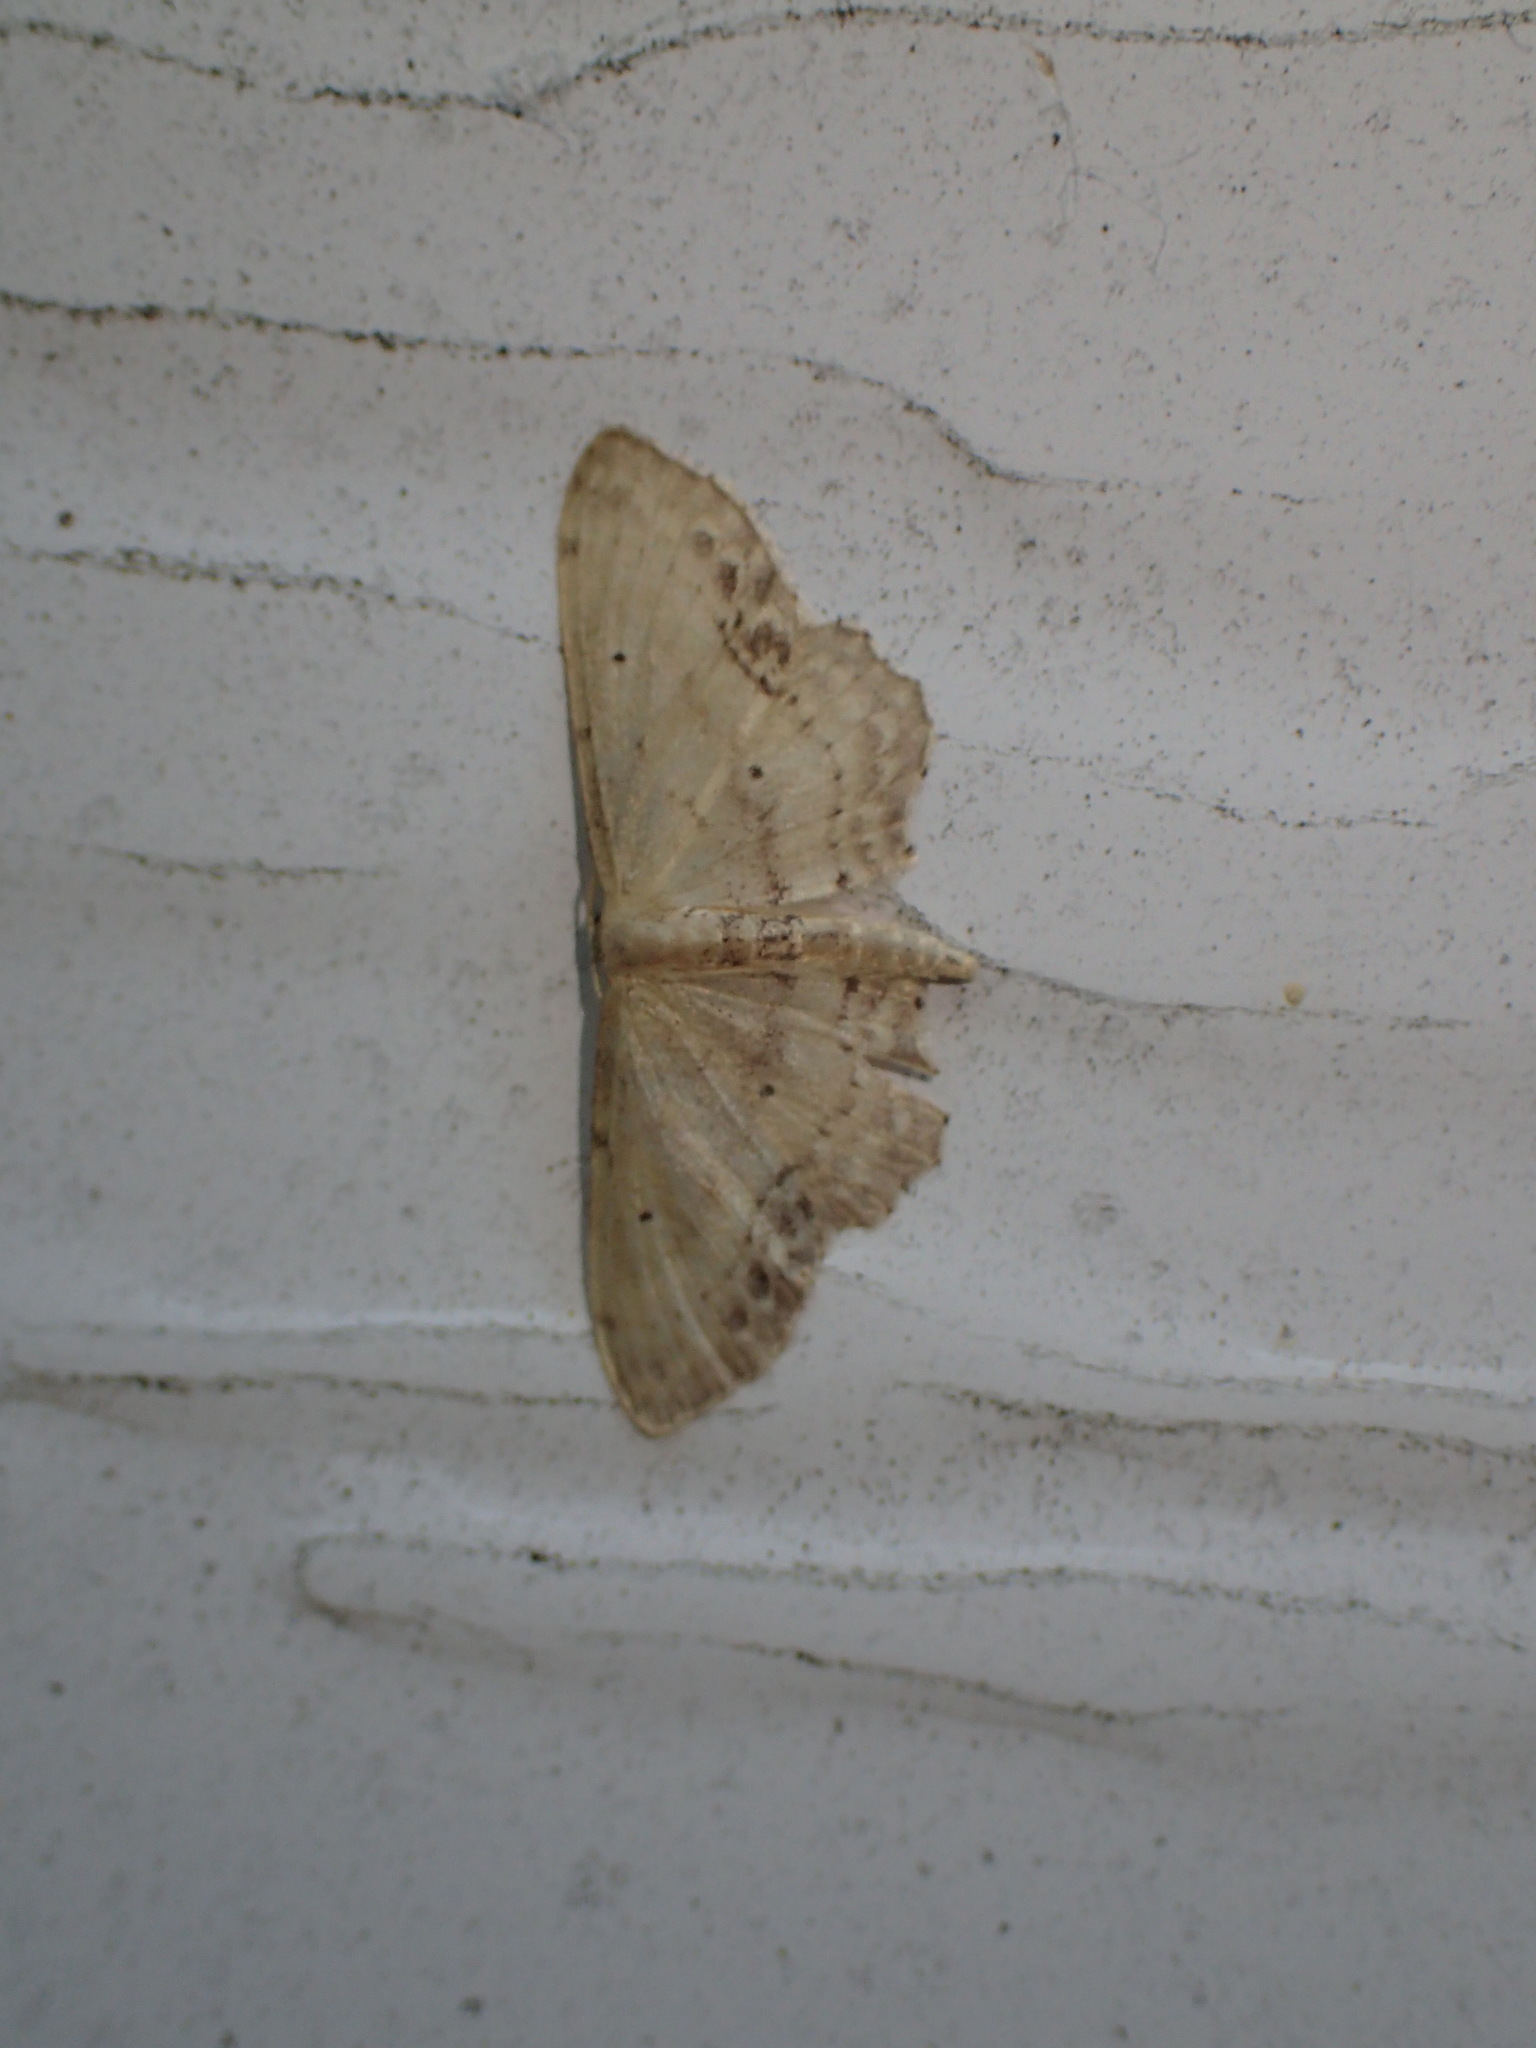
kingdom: Animalia
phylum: Arthropoda
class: Insecta
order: Lepidoptera
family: Geometridae
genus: Idaea
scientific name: Idaea dimidiata
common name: Single-dotted wave
